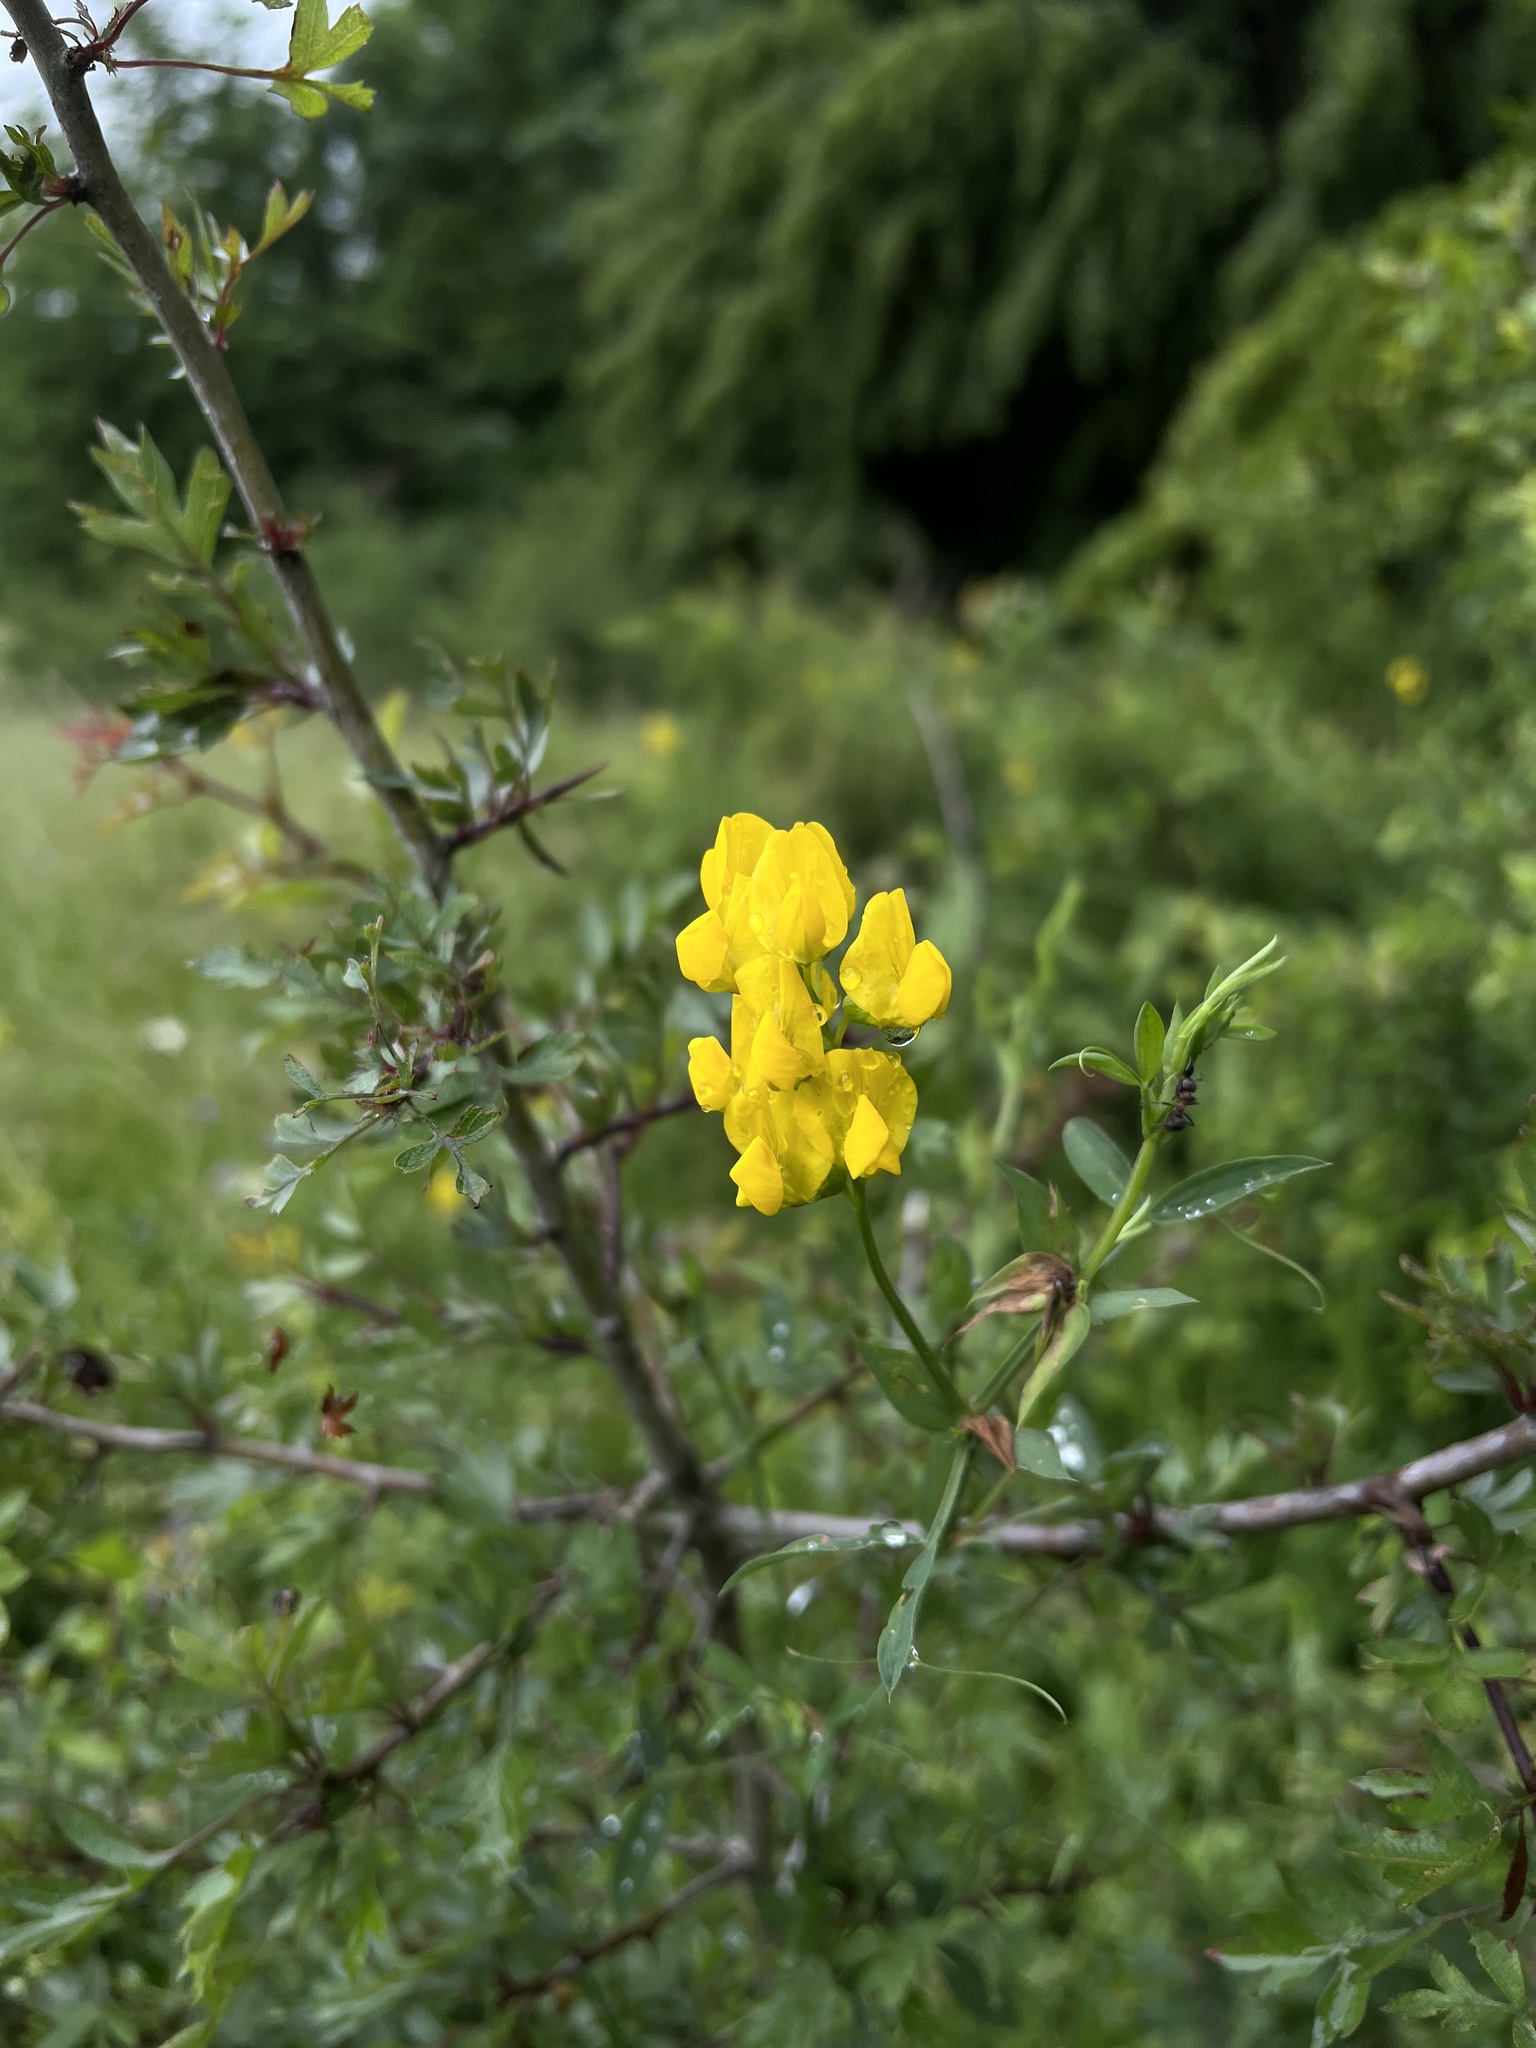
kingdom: Plantae
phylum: Tracheophyta
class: Magnoliopsida
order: Fabales
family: Fabaceae
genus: Lathyrus
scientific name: Lathyrus pratensis
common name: Meadow vetchling
